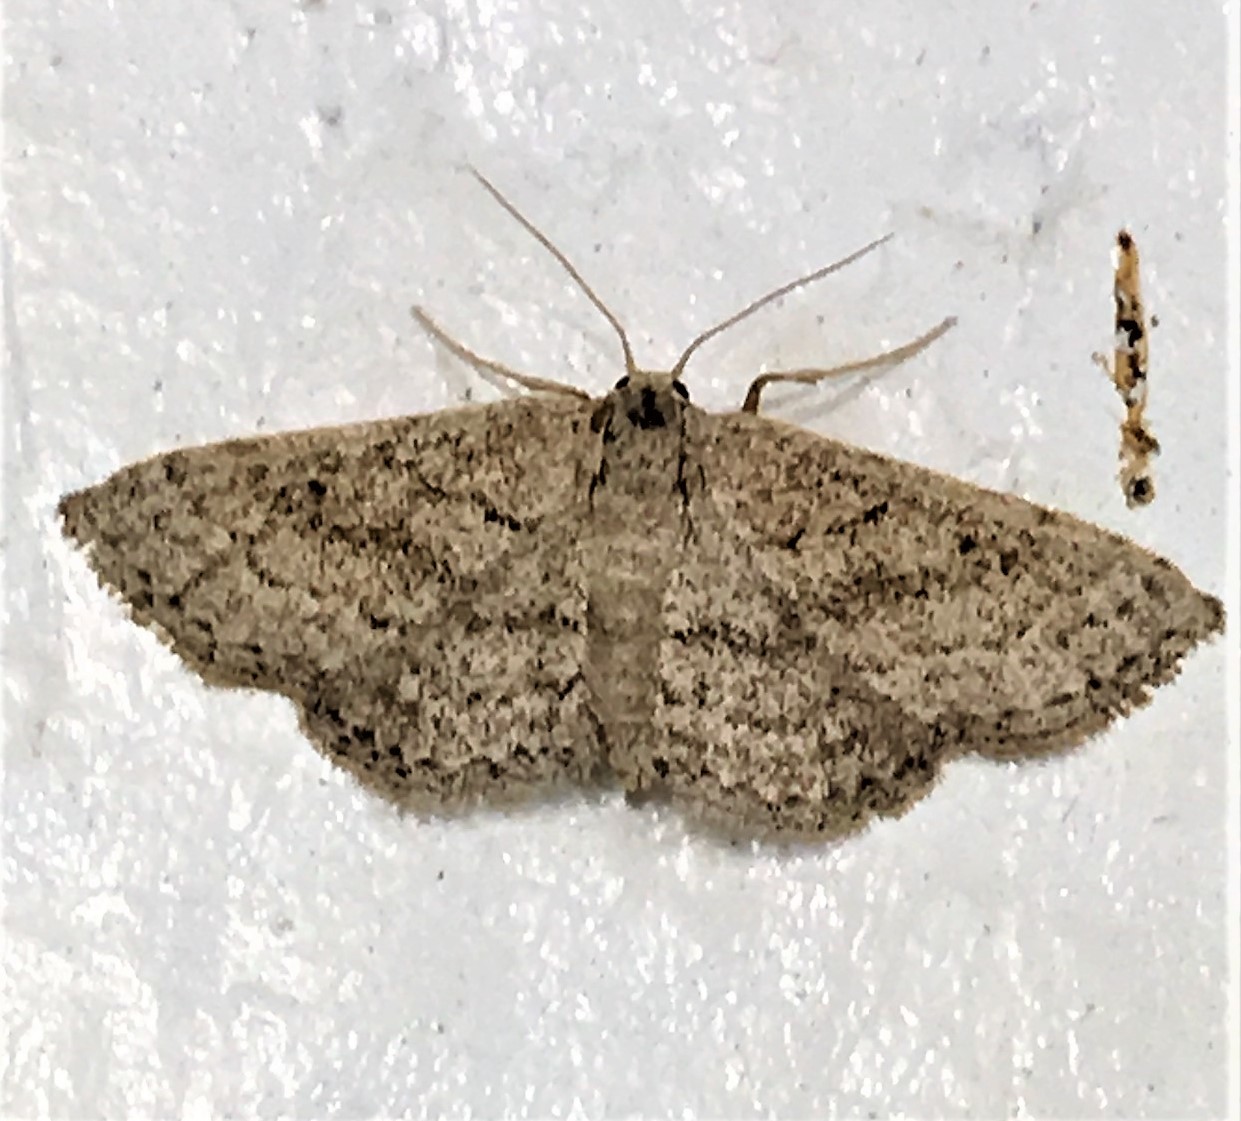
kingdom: Animalia
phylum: Arthropoda
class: Insecta
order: Lepidoptera
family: Geometridae
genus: Lobocleta
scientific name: Lobocleta ossularia
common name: Drab brown wave
